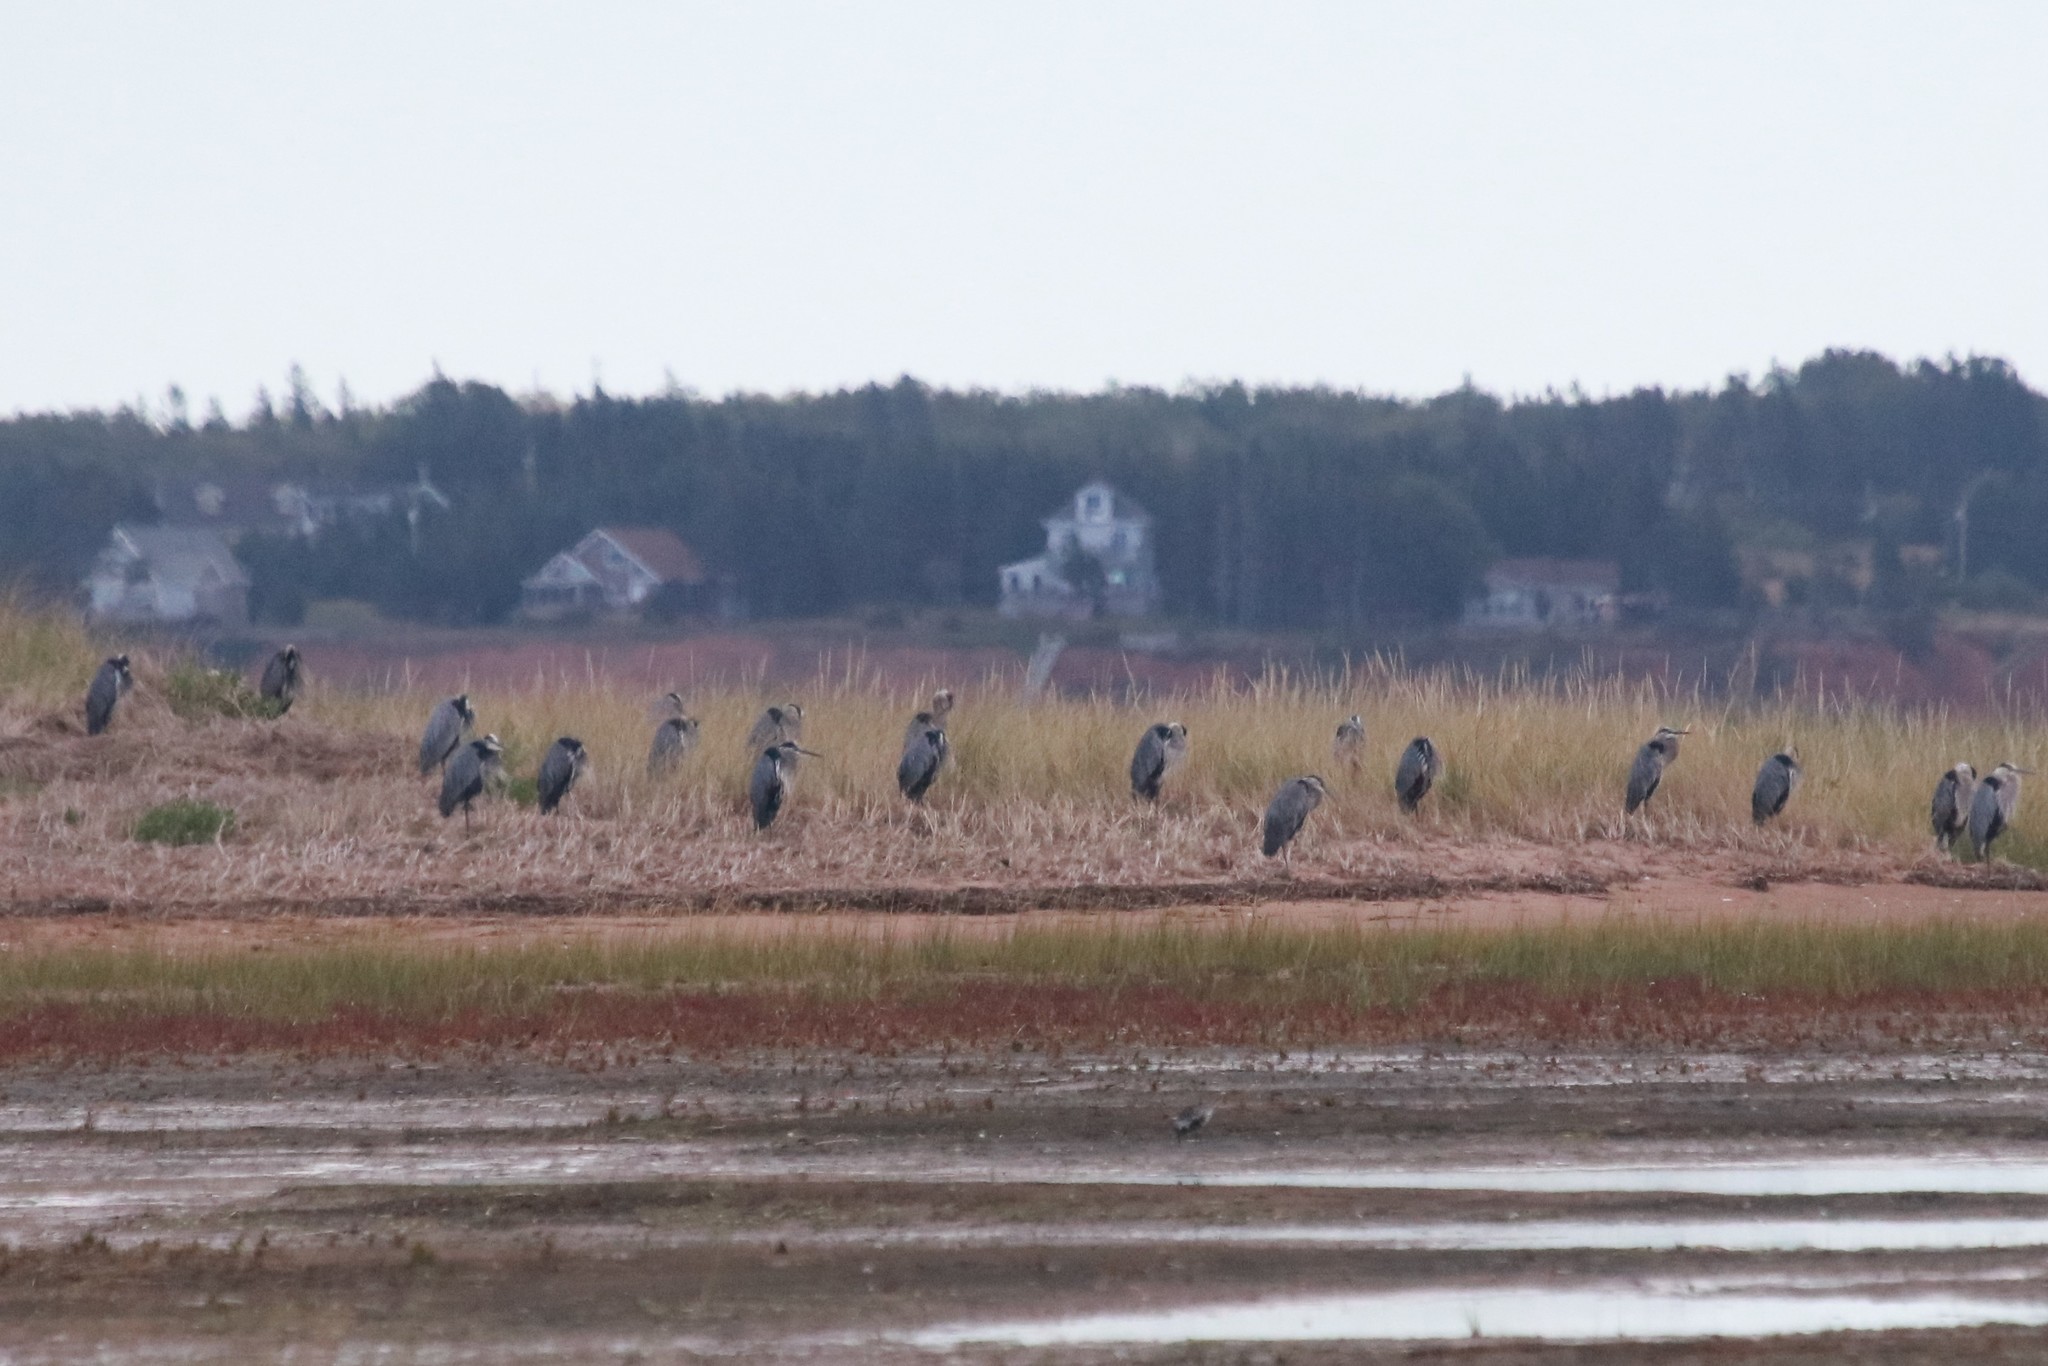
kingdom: Animalia
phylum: Chordata
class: Aves
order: Pelecaniformes
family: Ardeidae
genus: Ardea
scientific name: Ardea herodias
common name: Great blue heron
